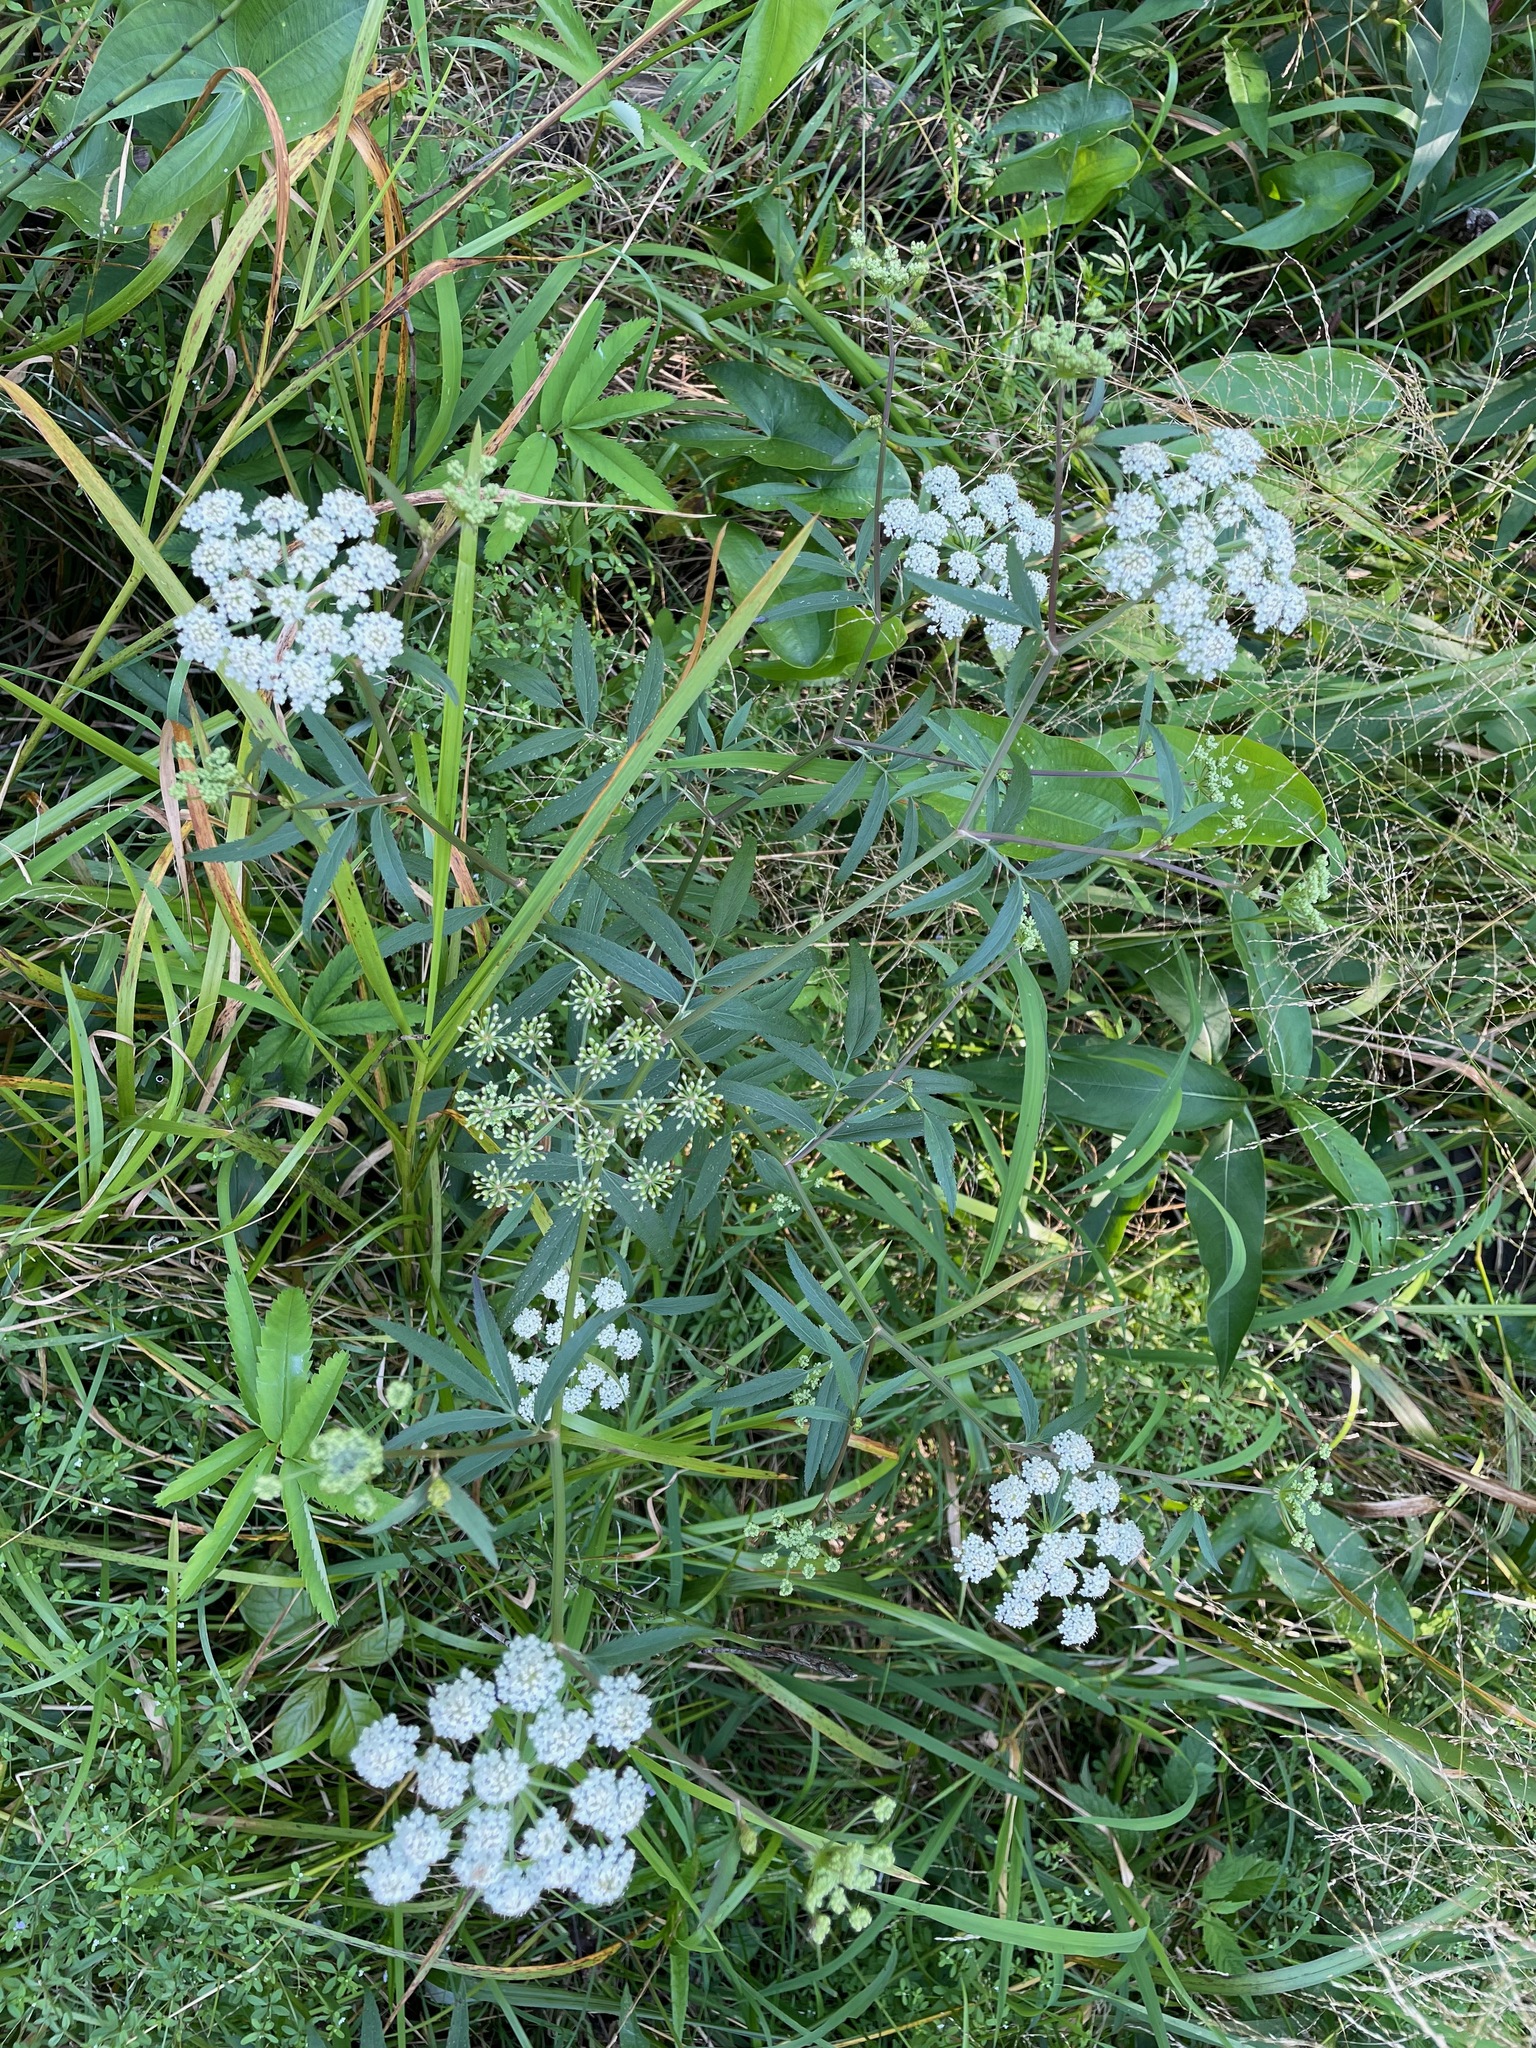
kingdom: Plantae
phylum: Tracheophyta
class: Magnoliopsida
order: Apiales
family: Apiaceae
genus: Sium
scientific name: Sium suave
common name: Hemlock water-parsnip
